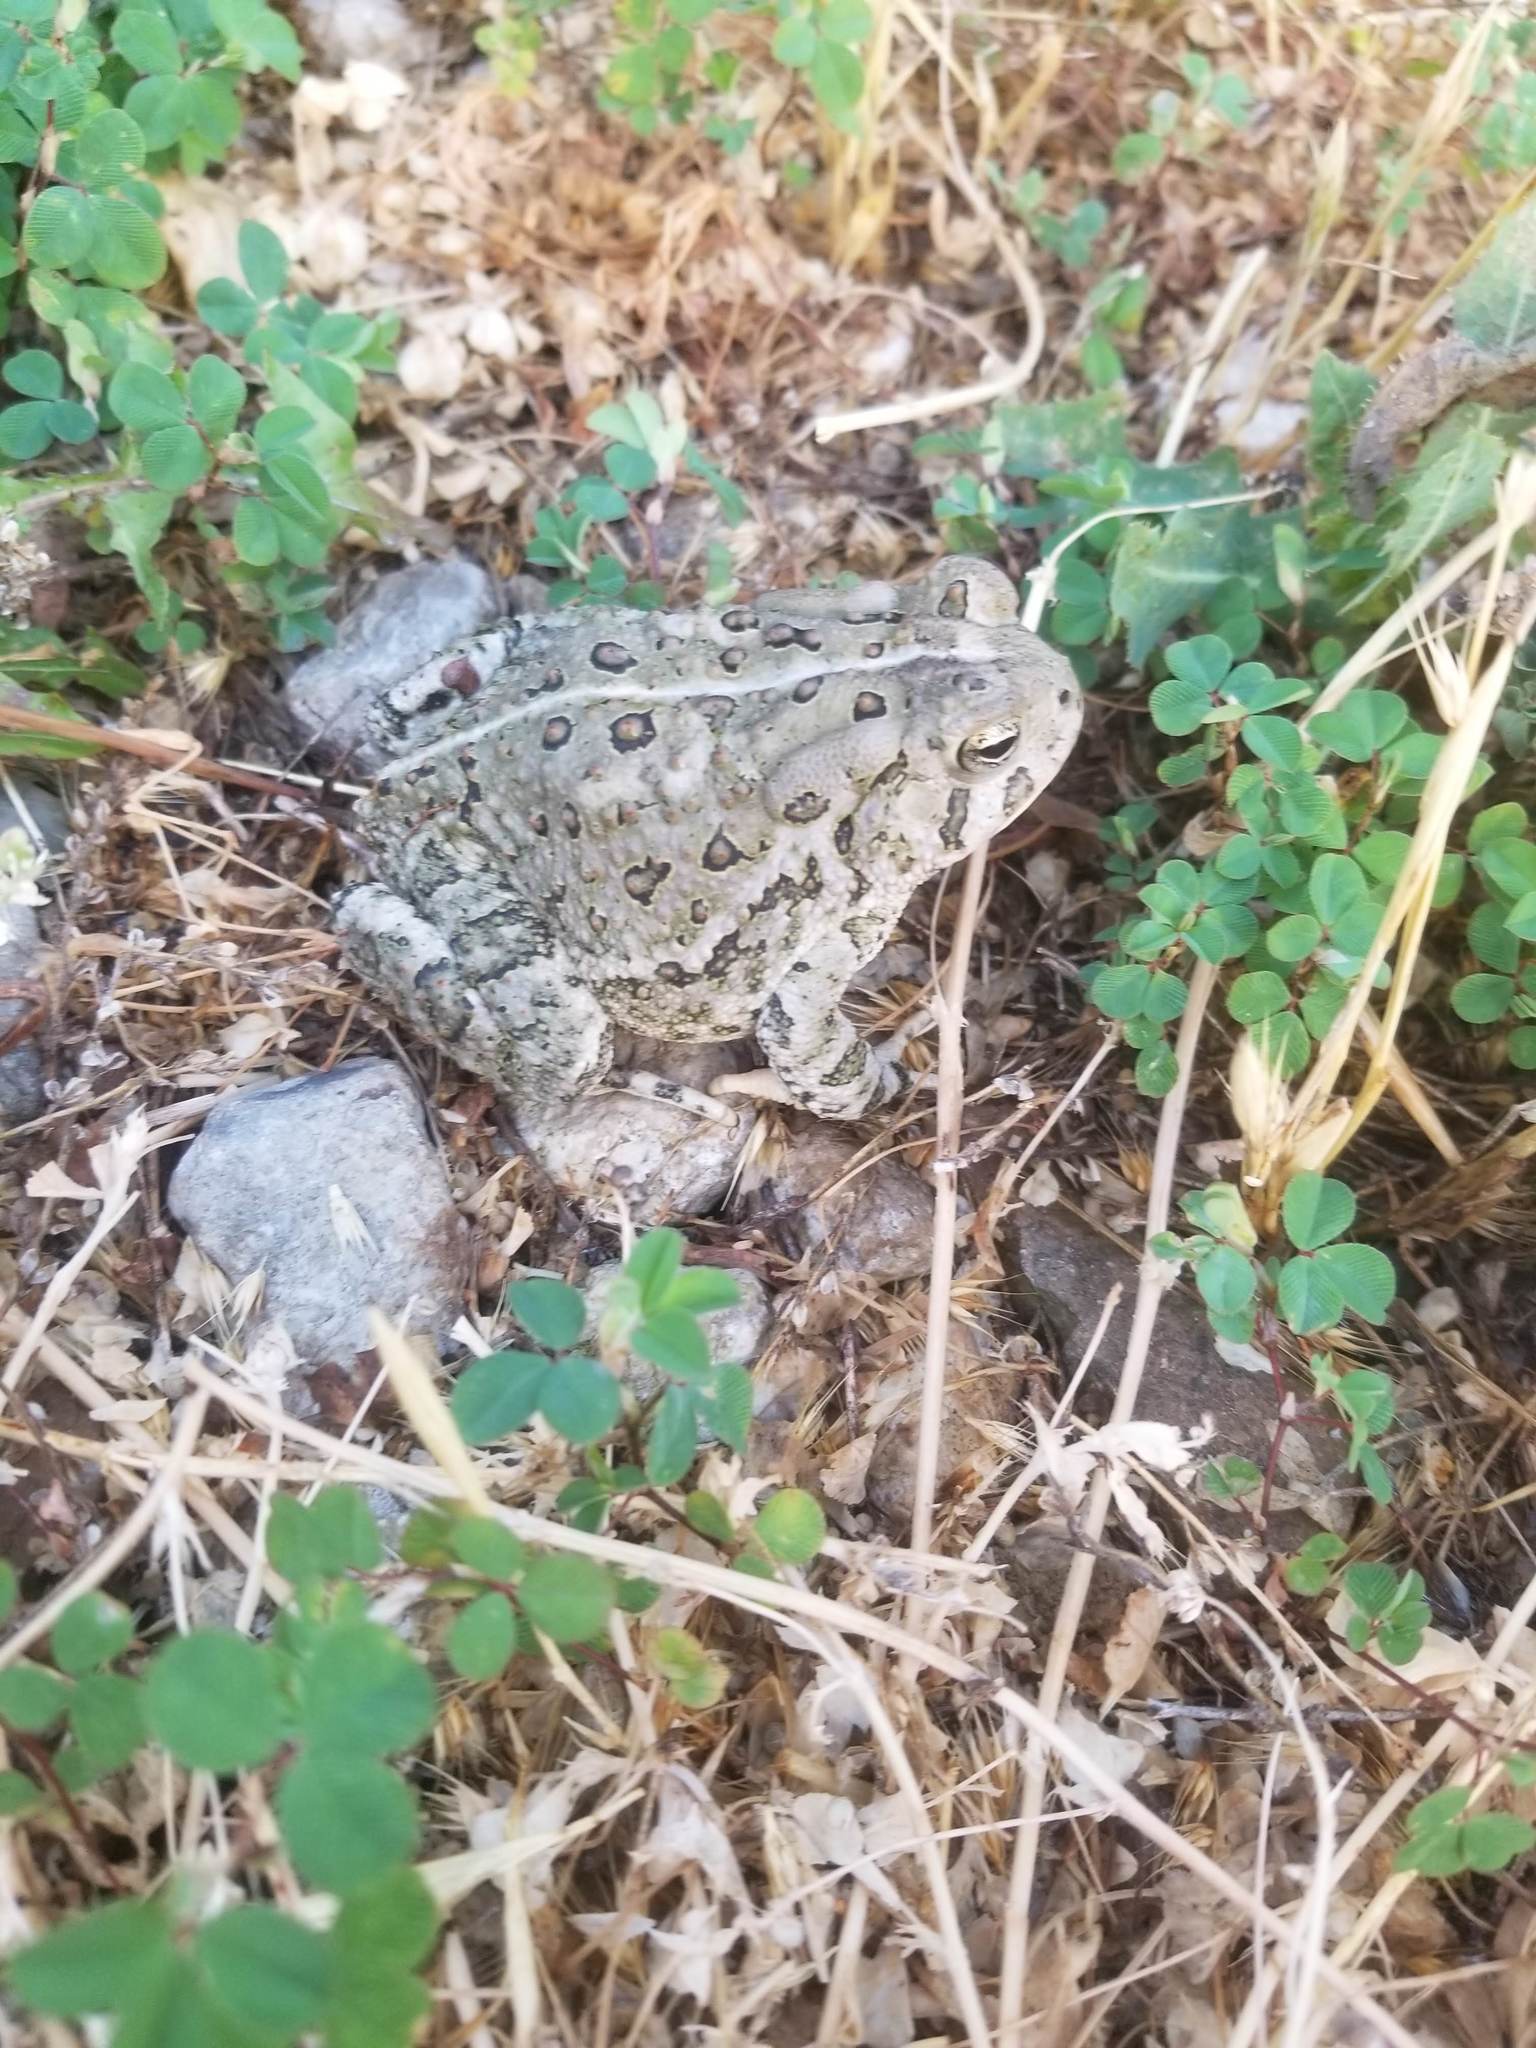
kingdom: Animalia
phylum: Chordata
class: Amphibia
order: Anura
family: Bufonidae
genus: Anaxyrus
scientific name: Anaxyrus woodhousii
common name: Woodhouse's toad
